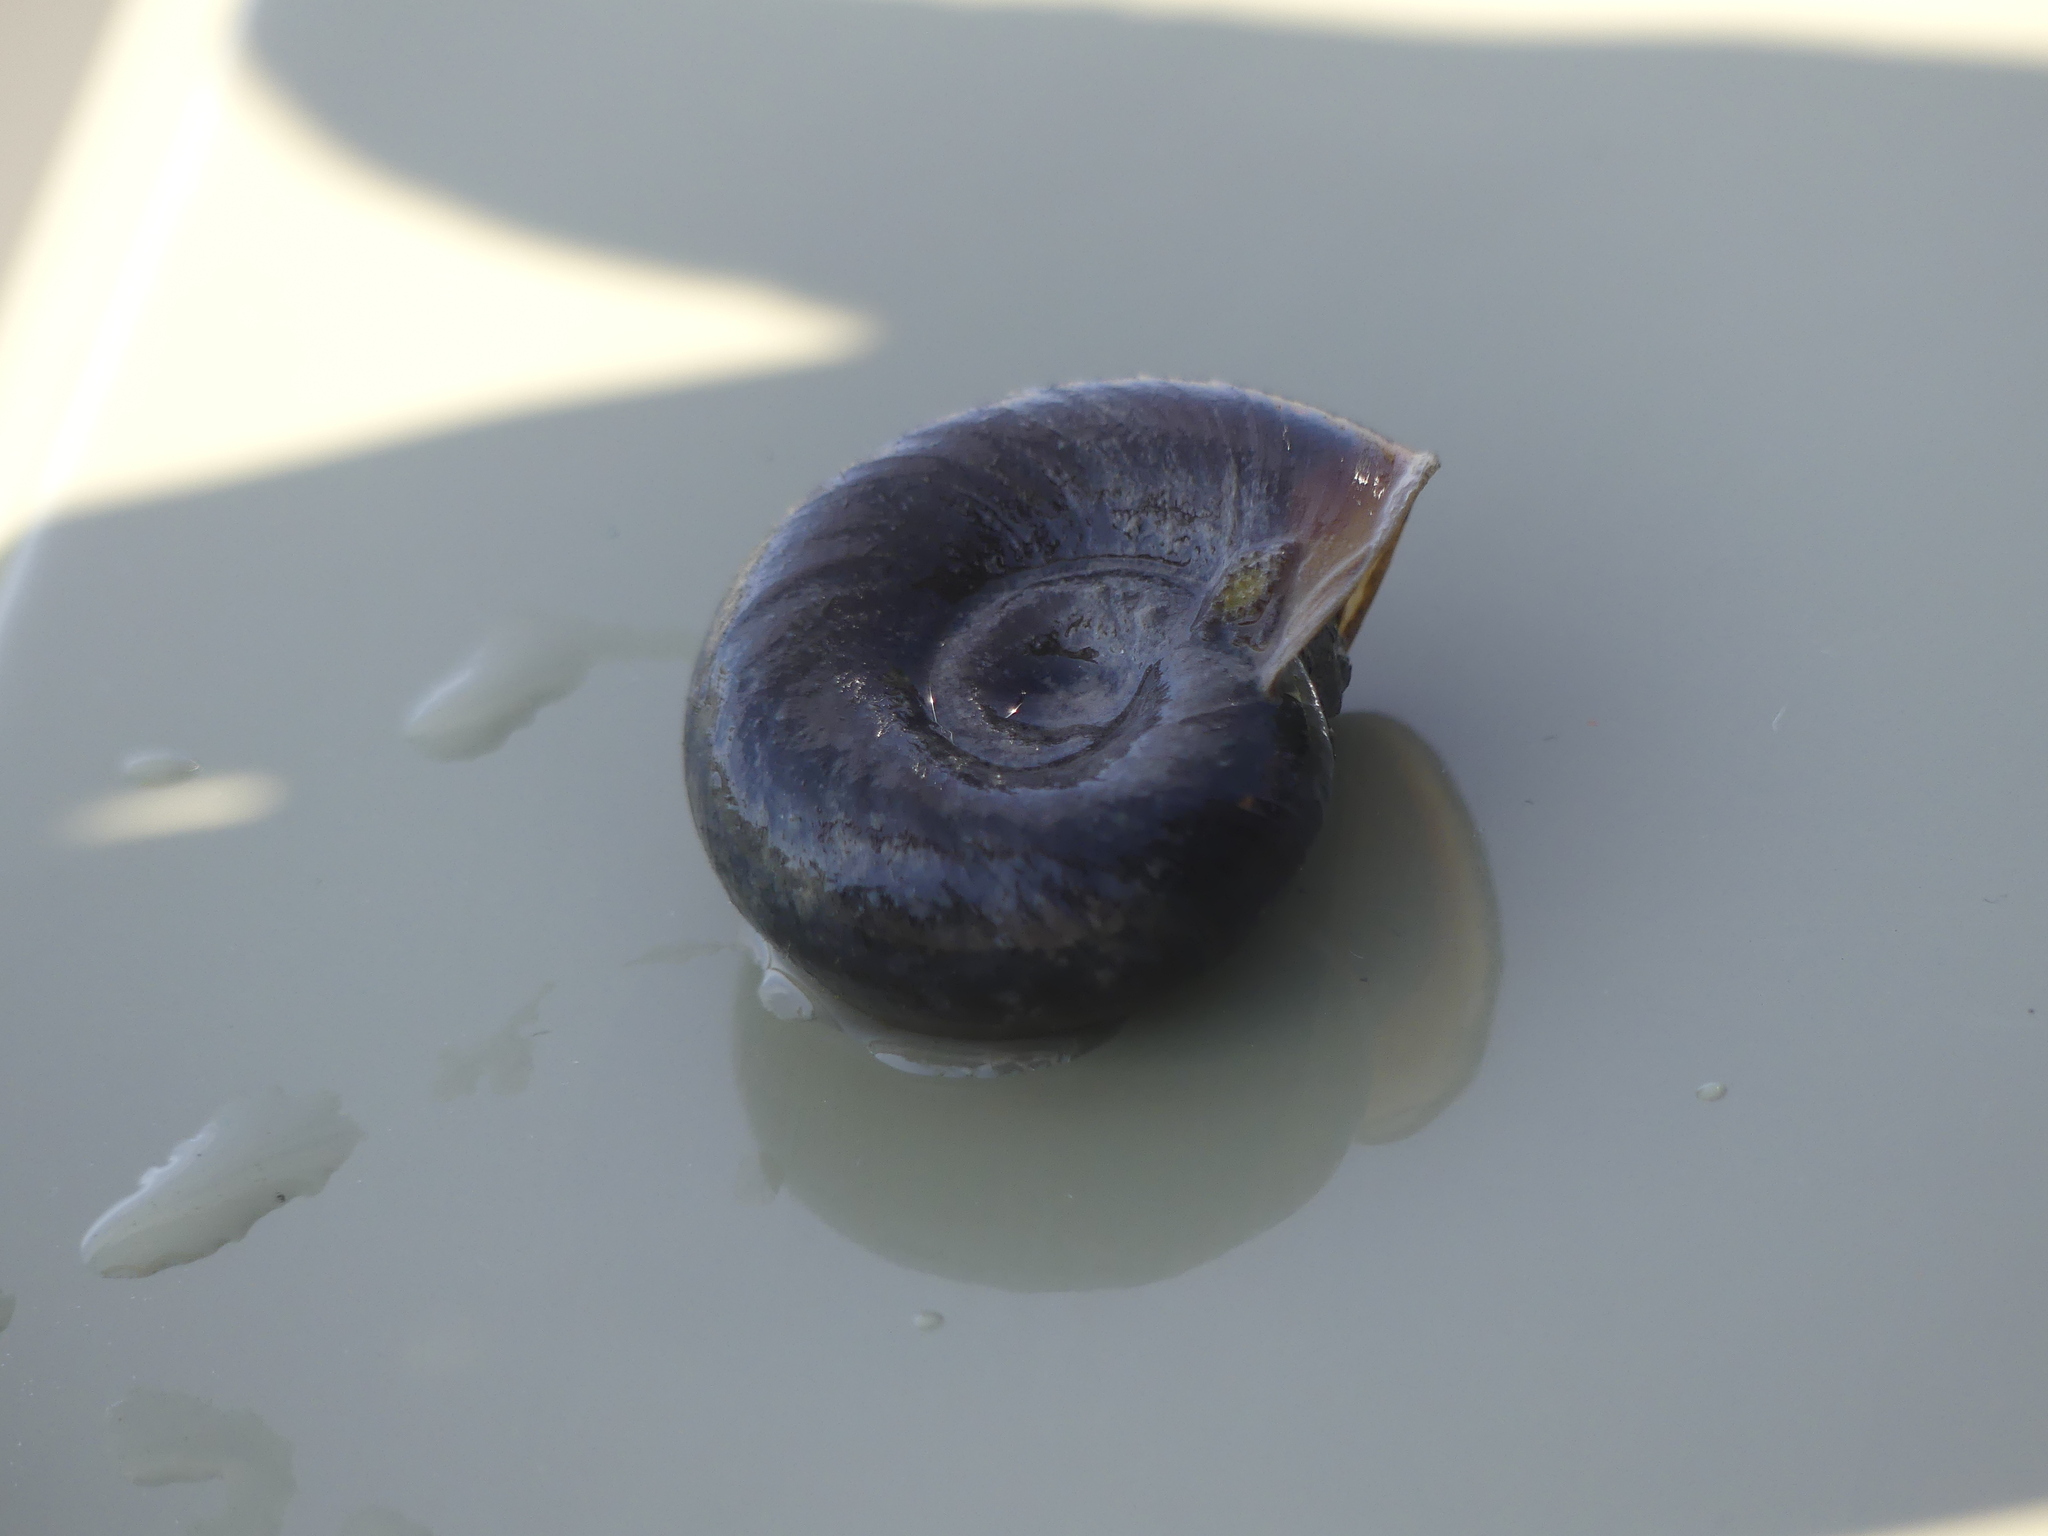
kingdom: Animalia
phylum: Mollusca
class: Gastropoda
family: Planorbidae
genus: Planorbarius
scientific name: Planorbarius corneus
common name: Great ramshorn
